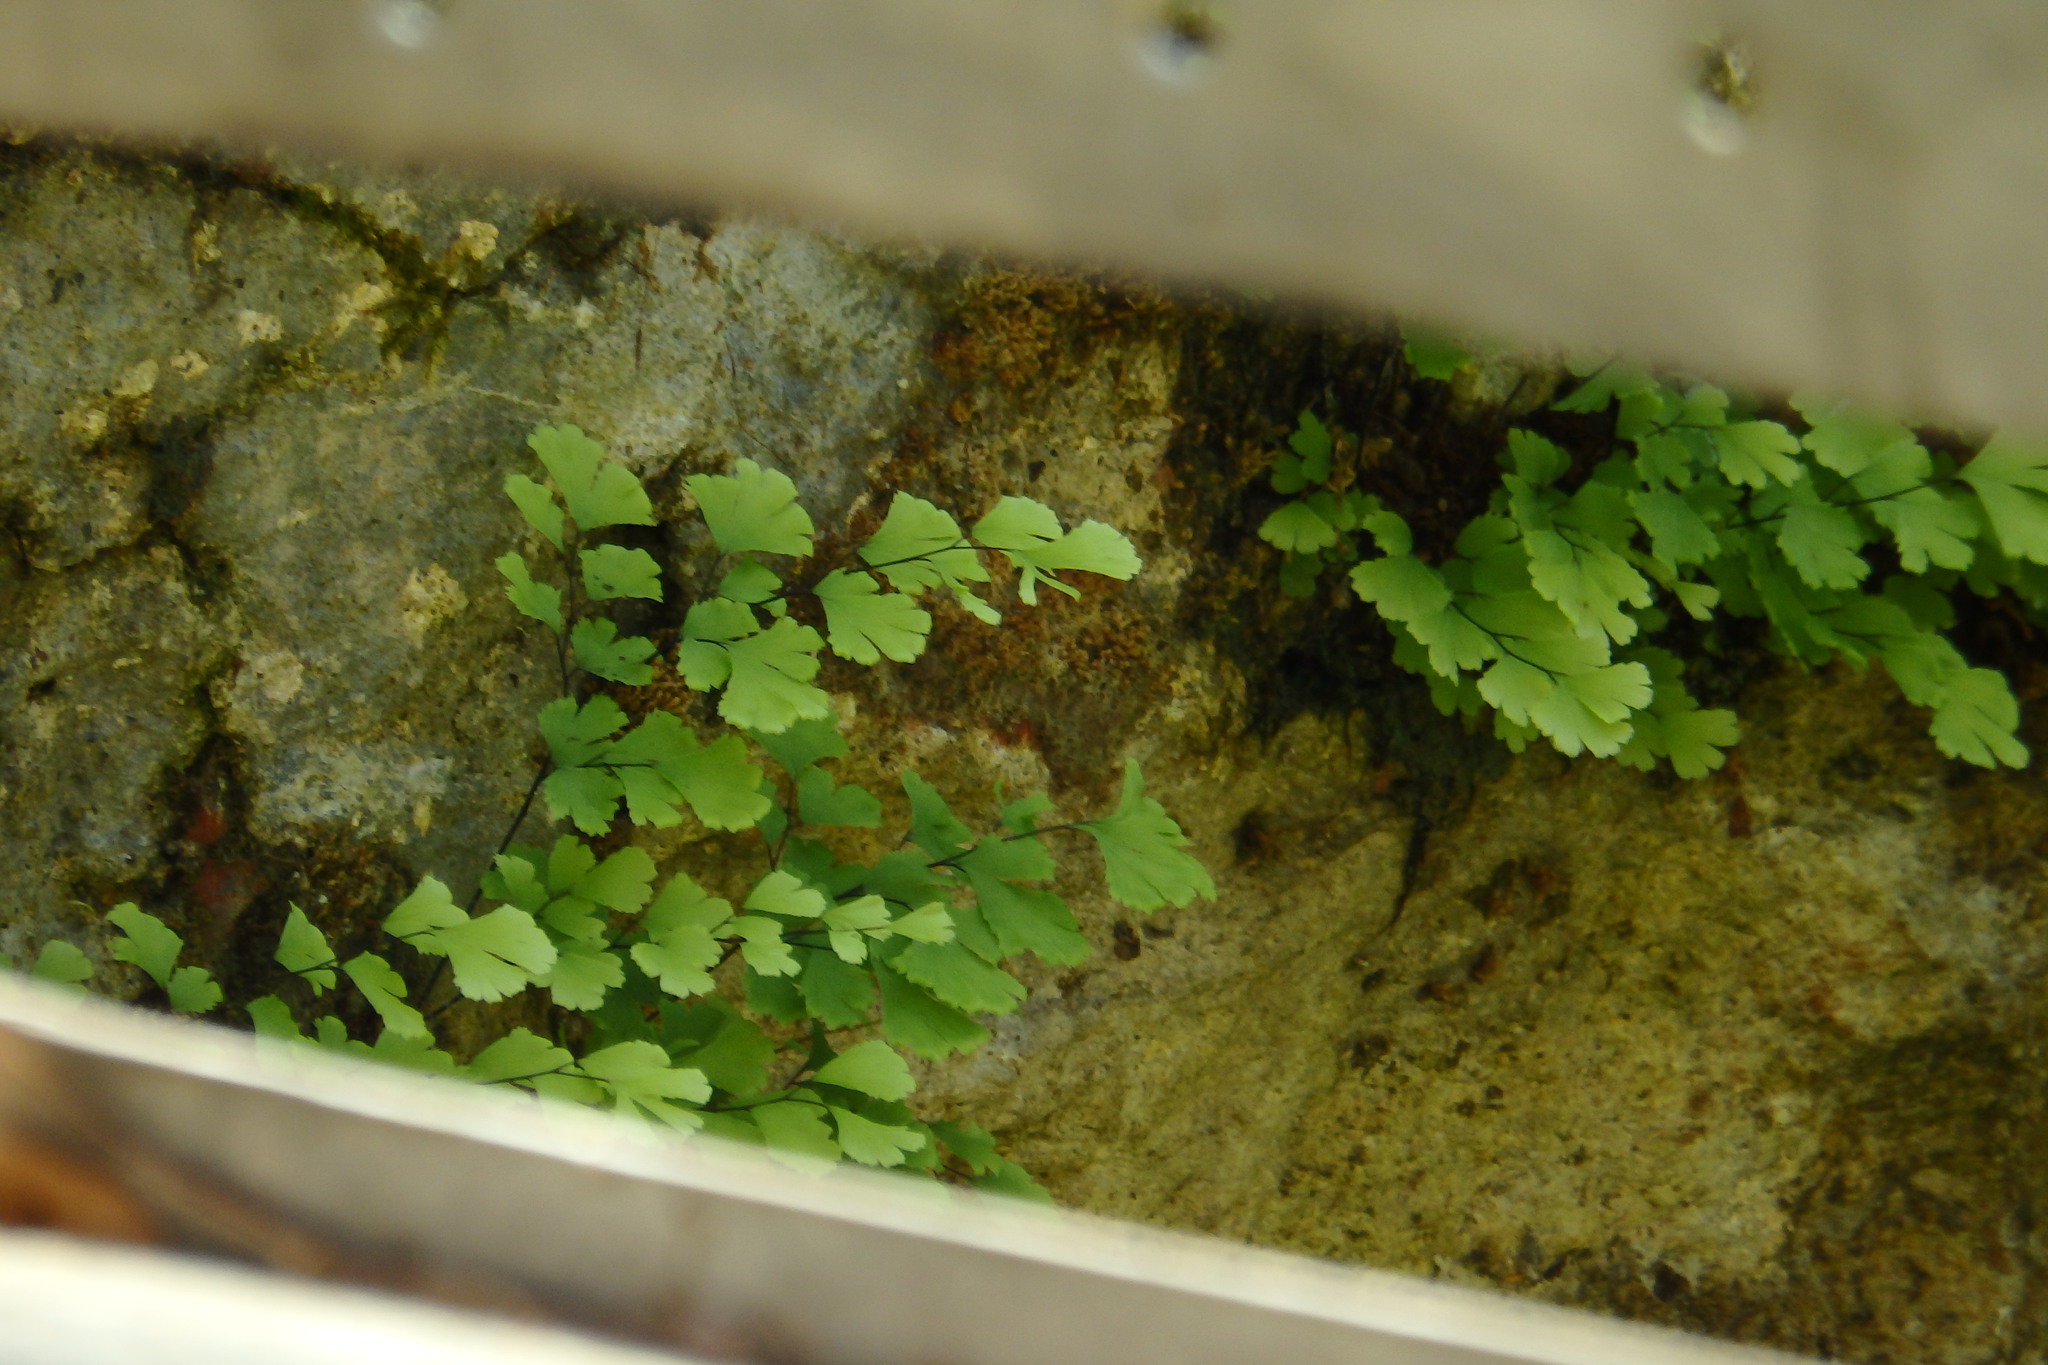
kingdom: Plantae
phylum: Tracheophyta
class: Polypodiopsida
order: Polypodiales
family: Pteridaceae
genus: Adiantum
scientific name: Adiantum capillus-veneris
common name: Maidenhair fern
